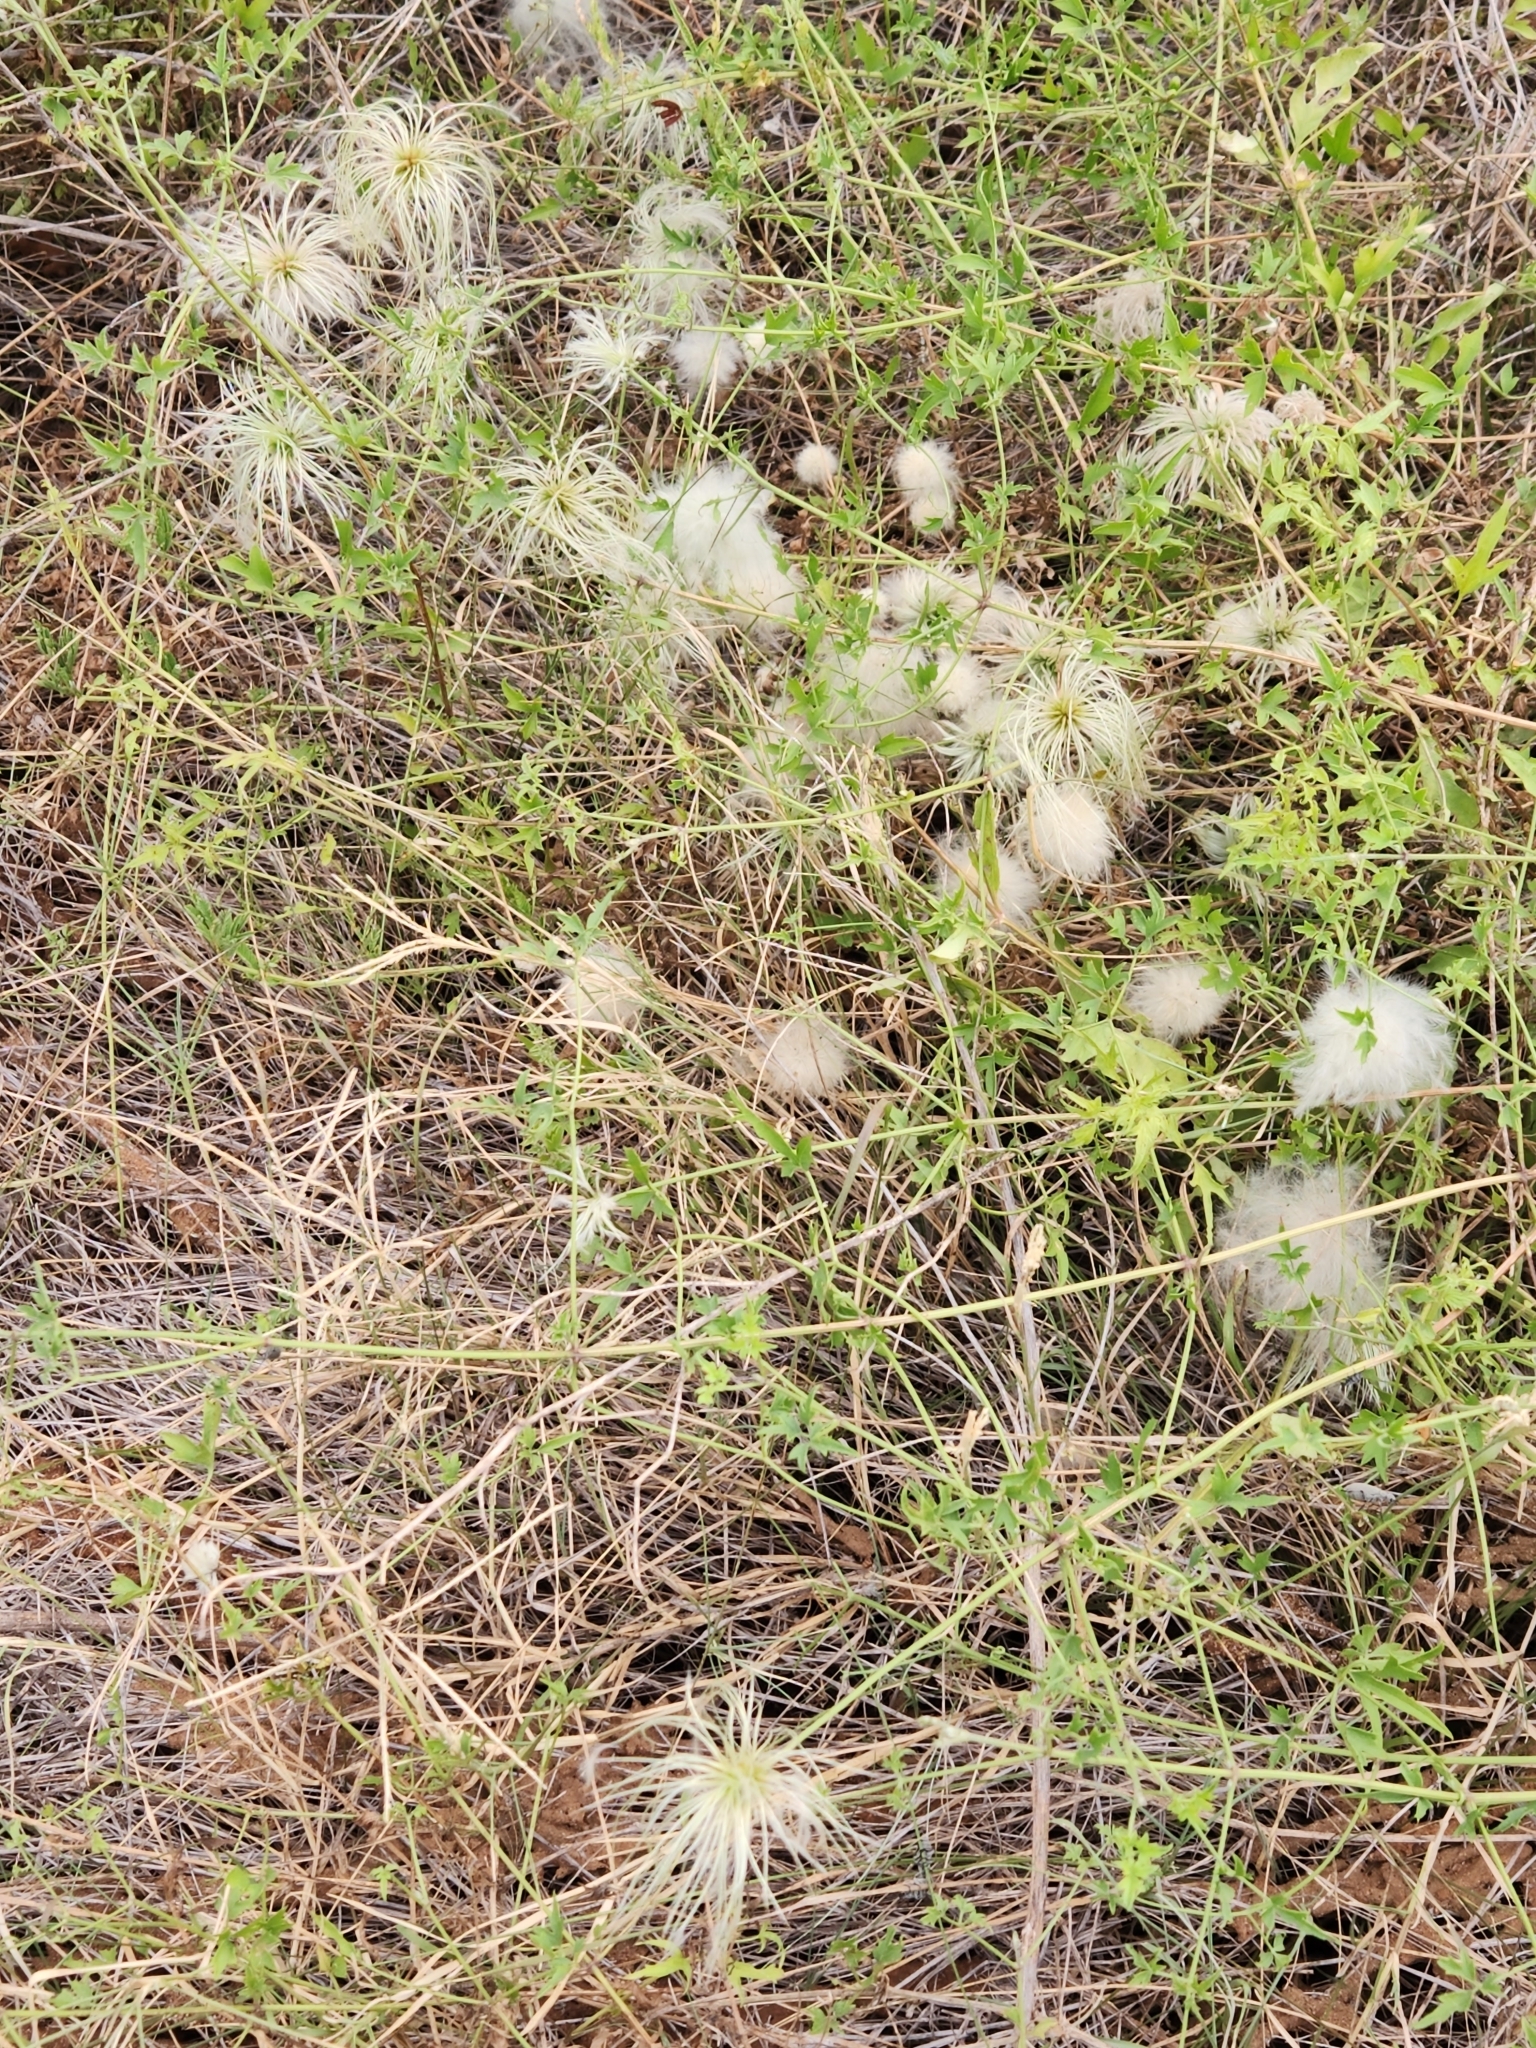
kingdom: Plantae
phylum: Tracheophyta
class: Magnoliopsida
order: Ranunculales
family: Ranunculaceae
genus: Clematis
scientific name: Clematis drummondii
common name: Texas virgin's bower
